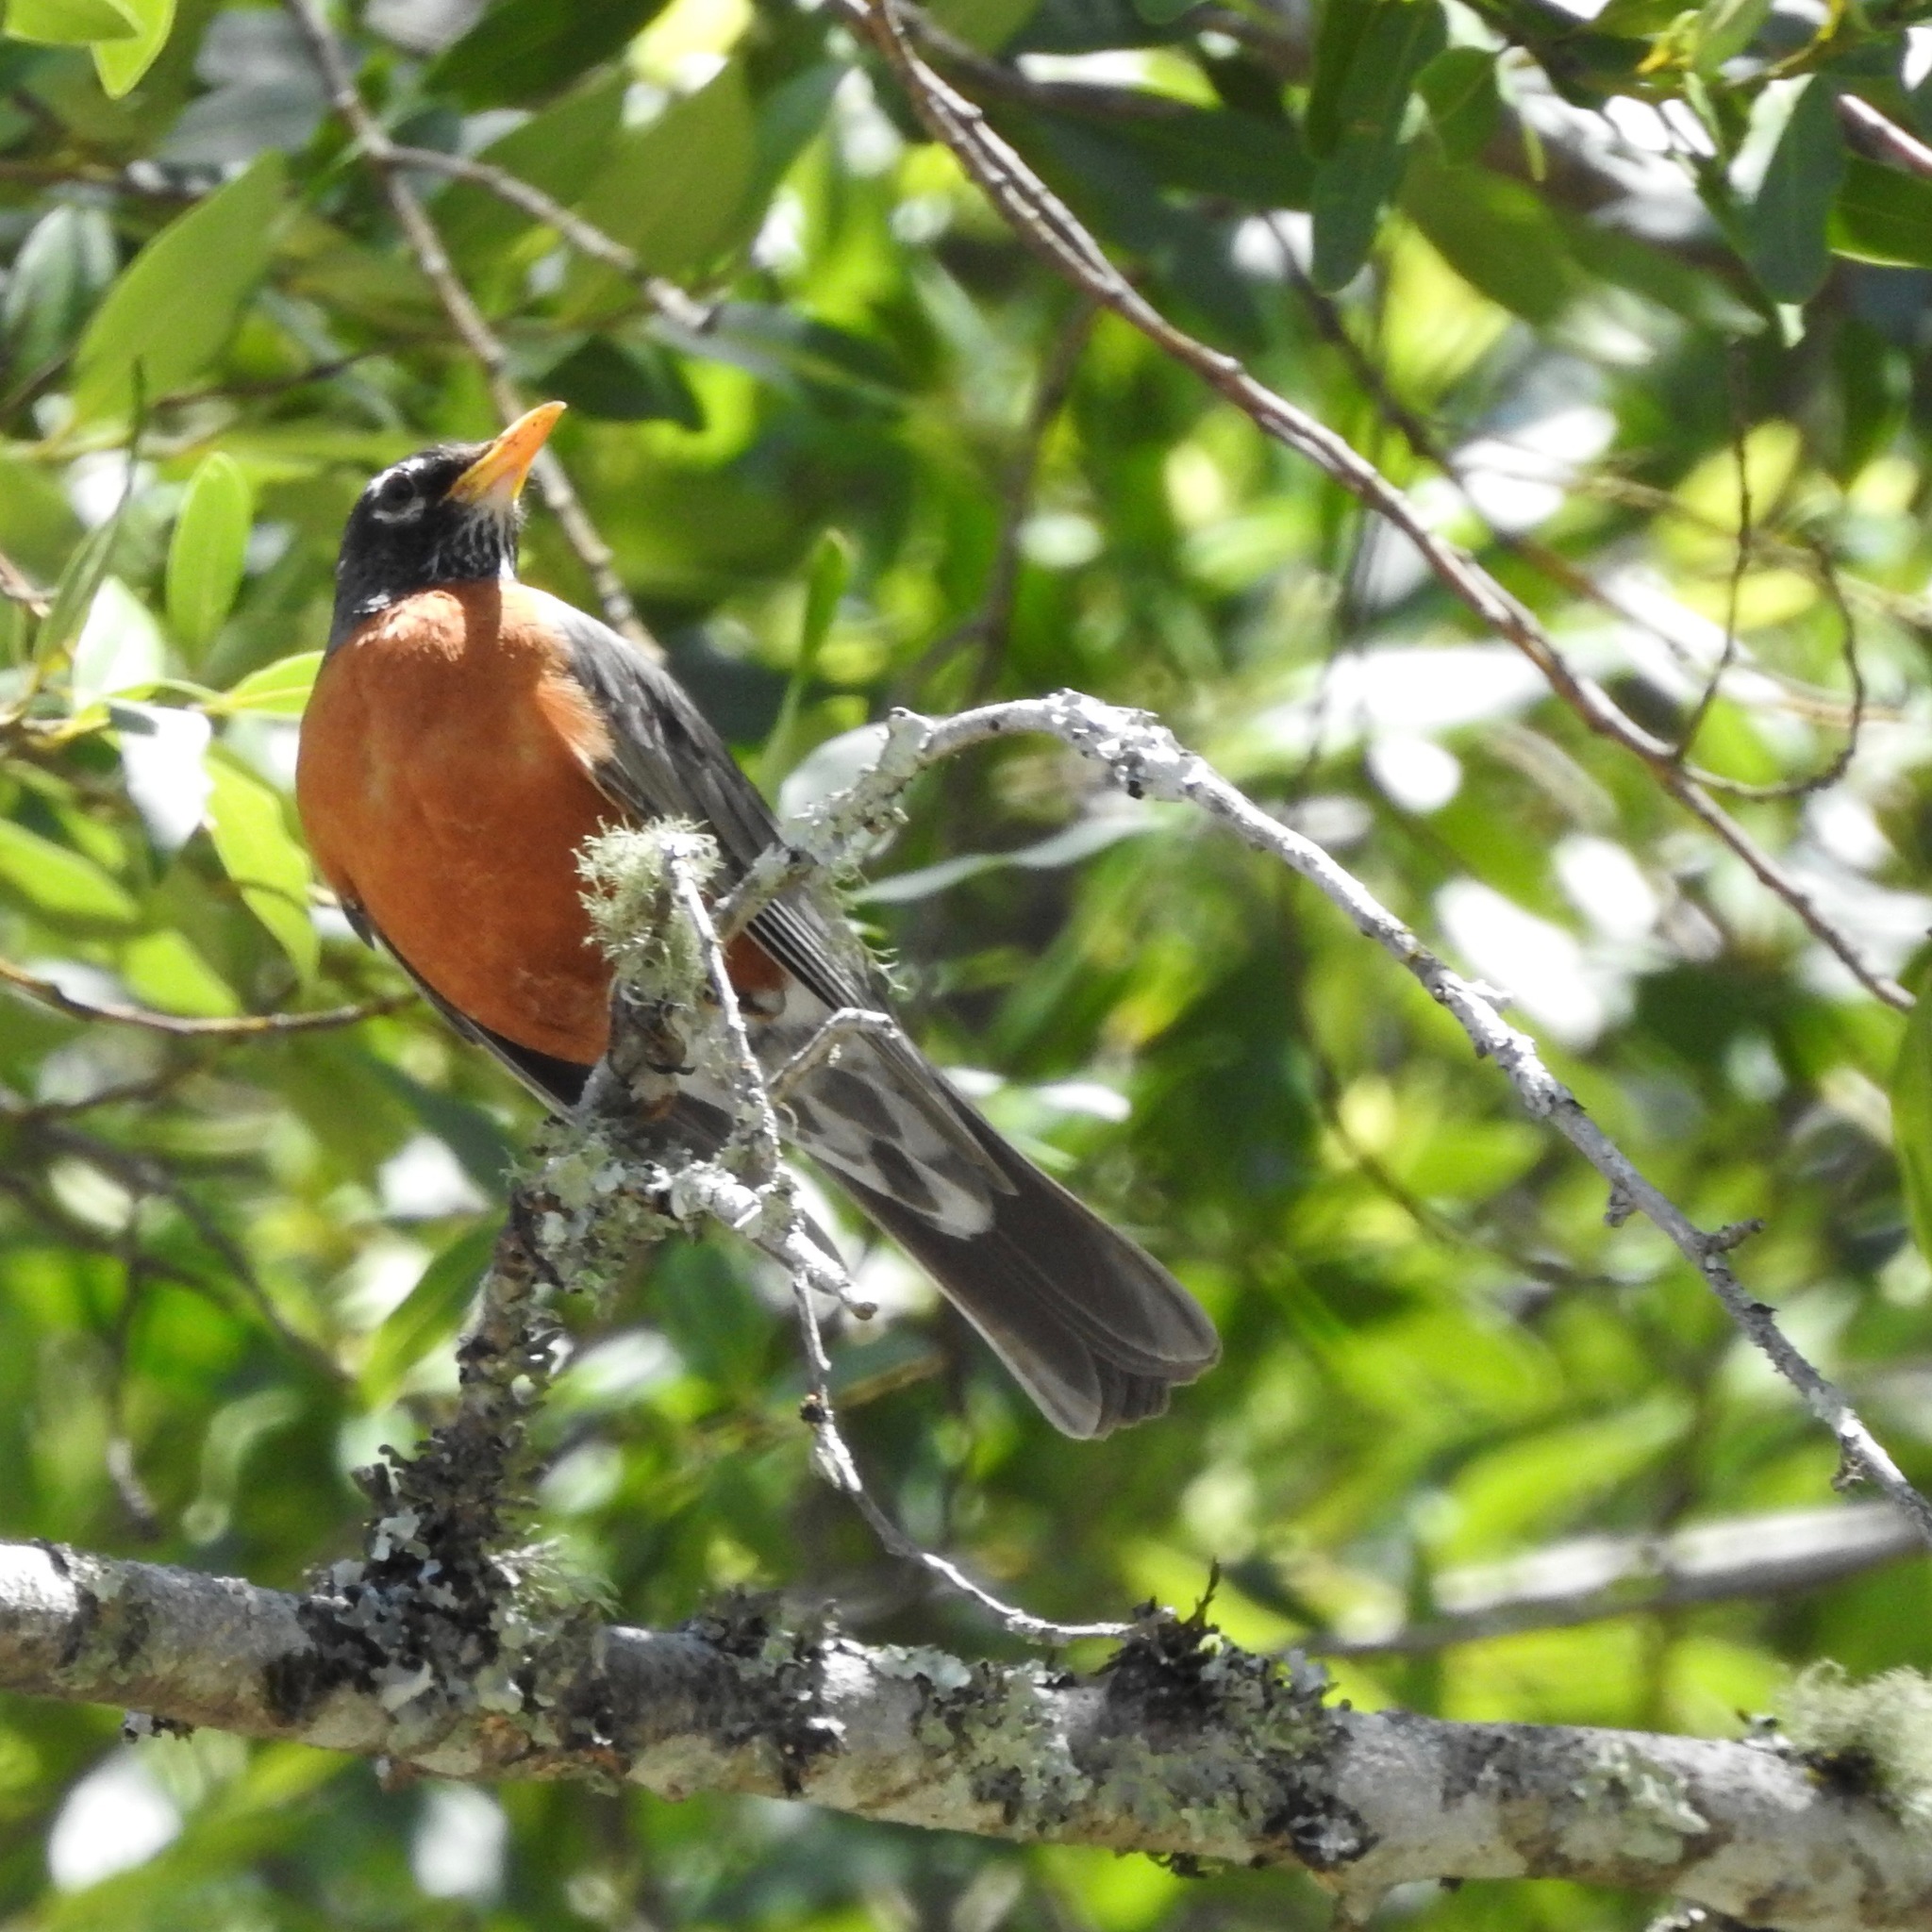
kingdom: Animalia
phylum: Chordata
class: Aves
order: Passeriformes
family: Turdidae
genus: Turdus
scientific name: Turdus migratorius
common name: American robin
